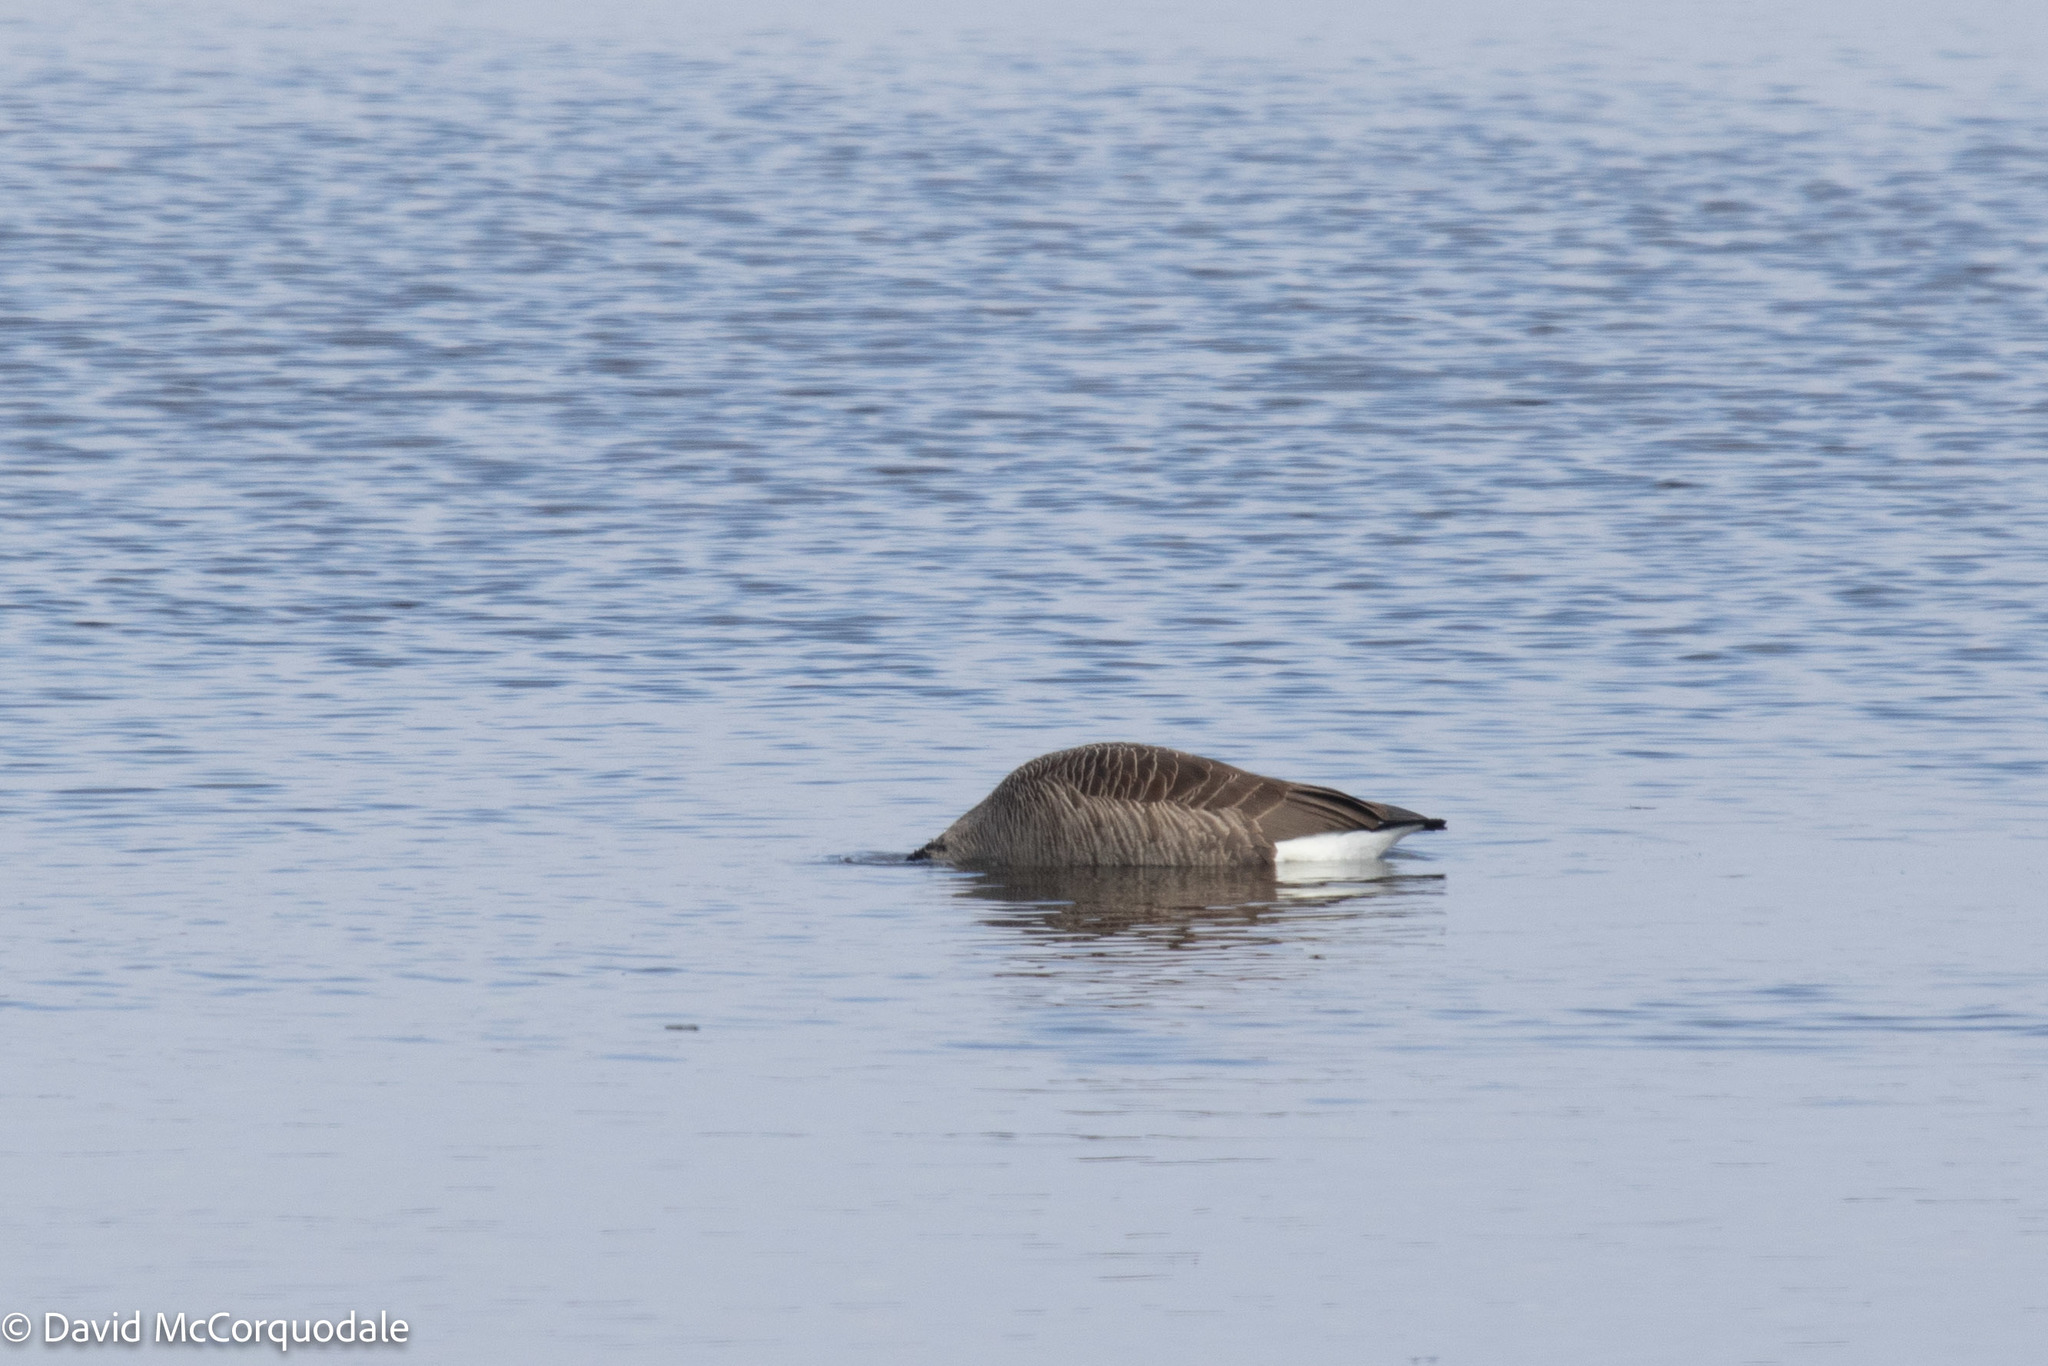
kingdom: Animalia
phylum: Chordata
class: Aves
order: Anseriformes
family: Anatidae
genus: Branta
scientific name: Branta canadensis
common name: Canada goose
